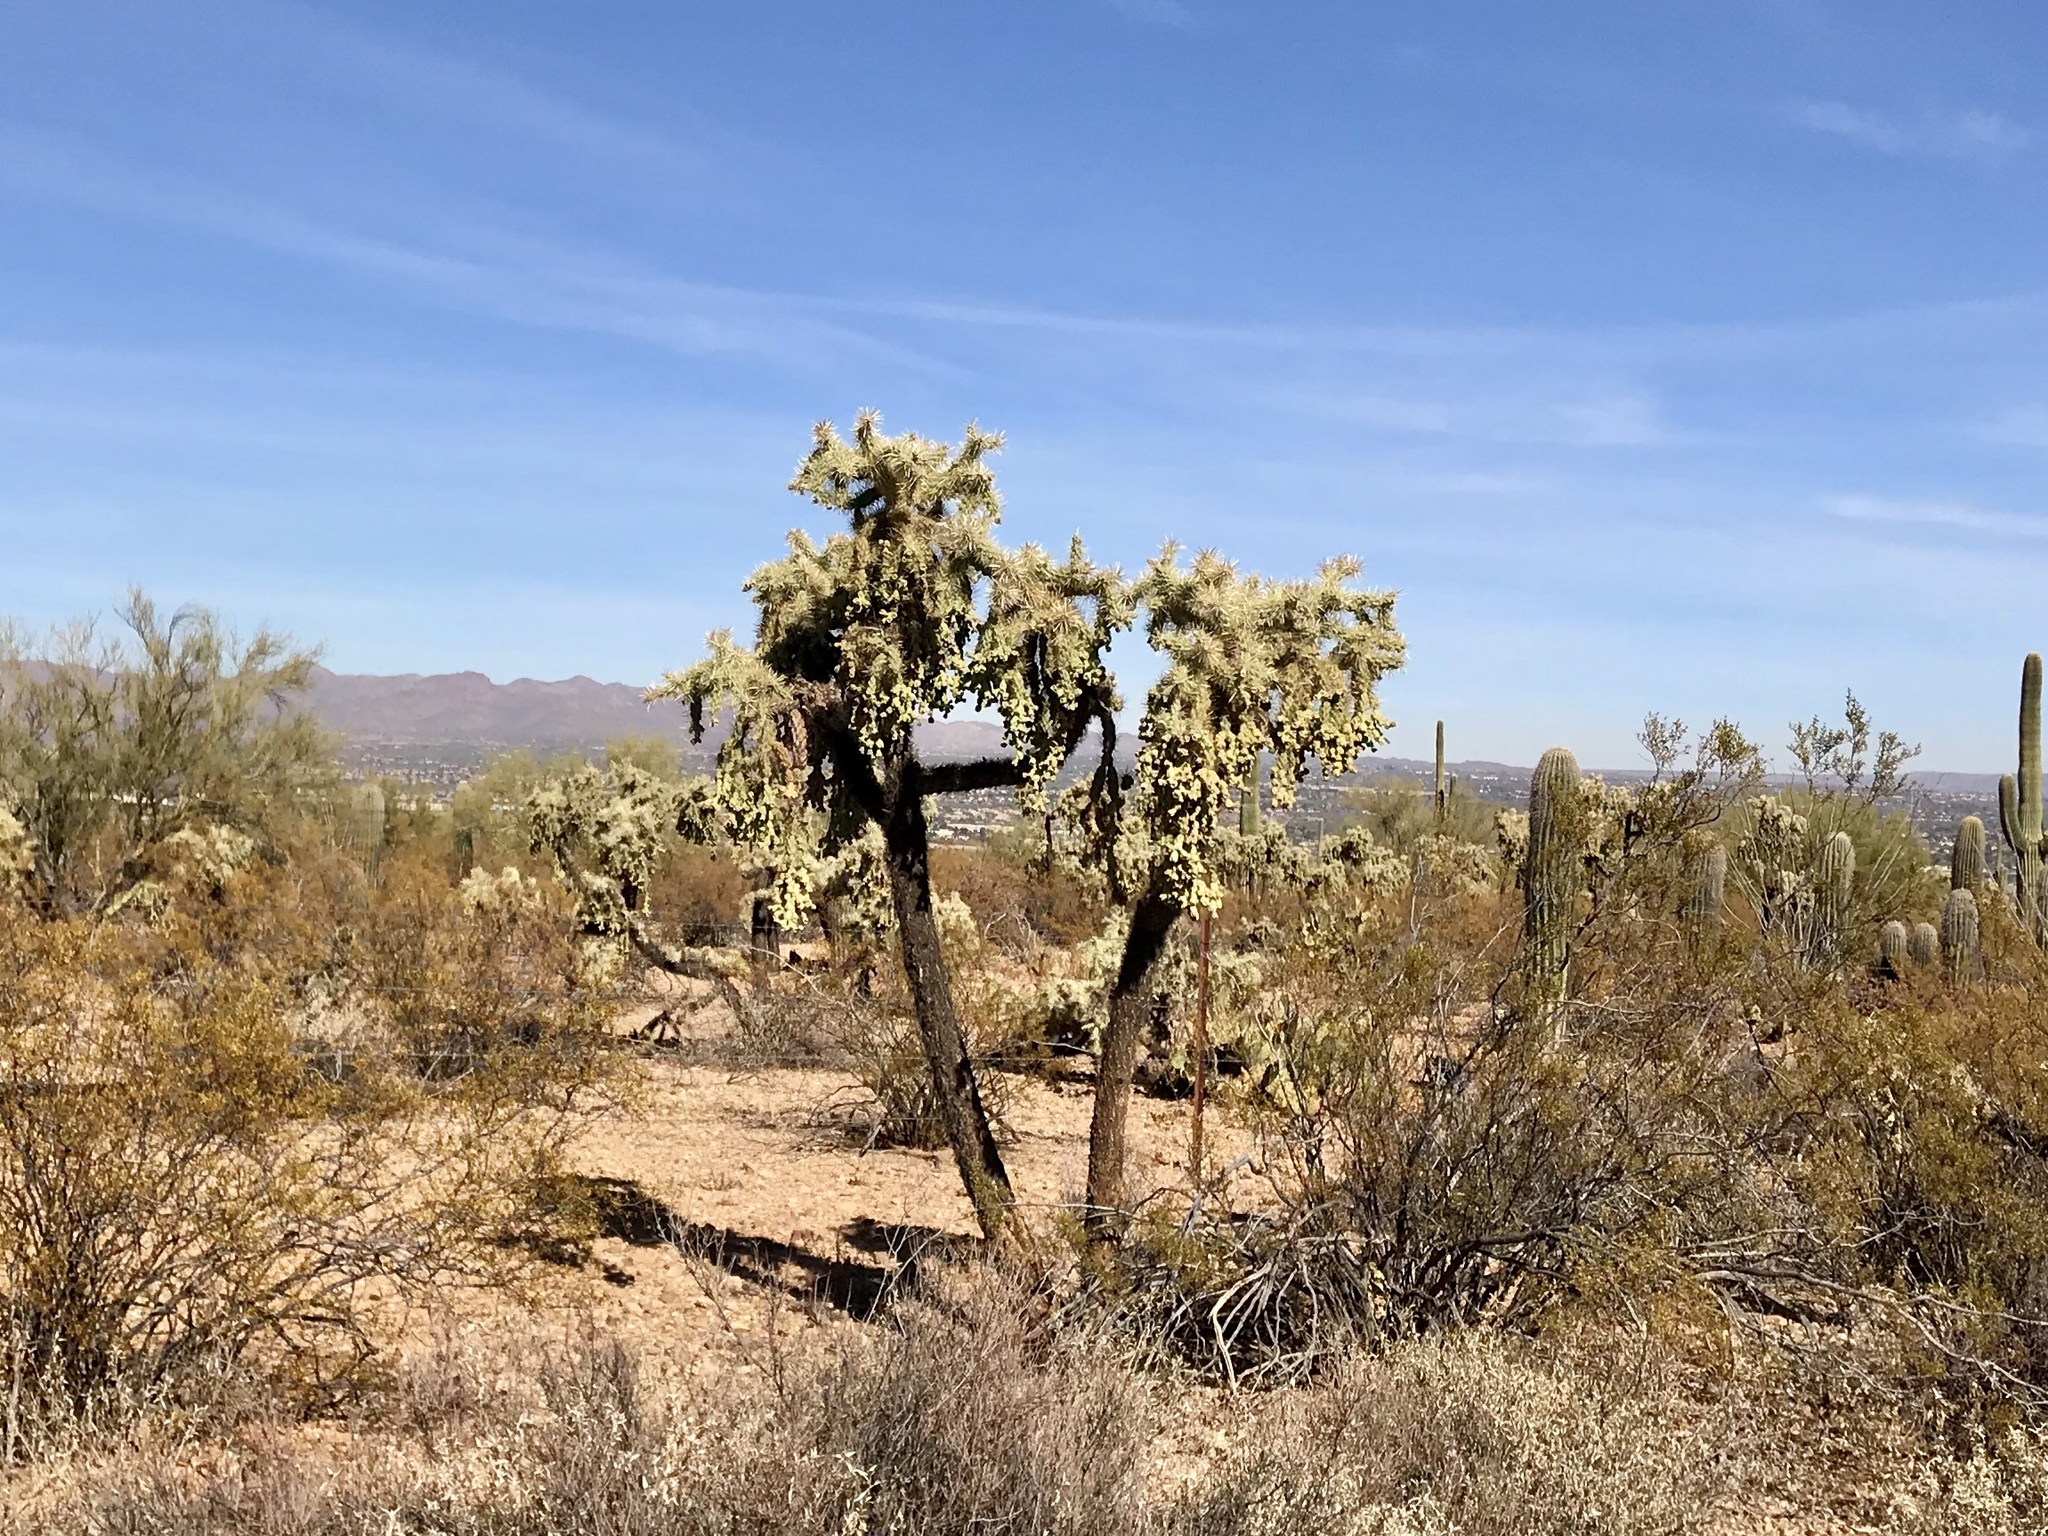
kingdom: Plantae
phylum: Tracheophyta
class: Magnoliopsida
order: Caryophyllales
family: Cactaceae
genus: Cylindropuntia
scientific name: Cylindropuntia fulgida
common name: Jumping cholla
